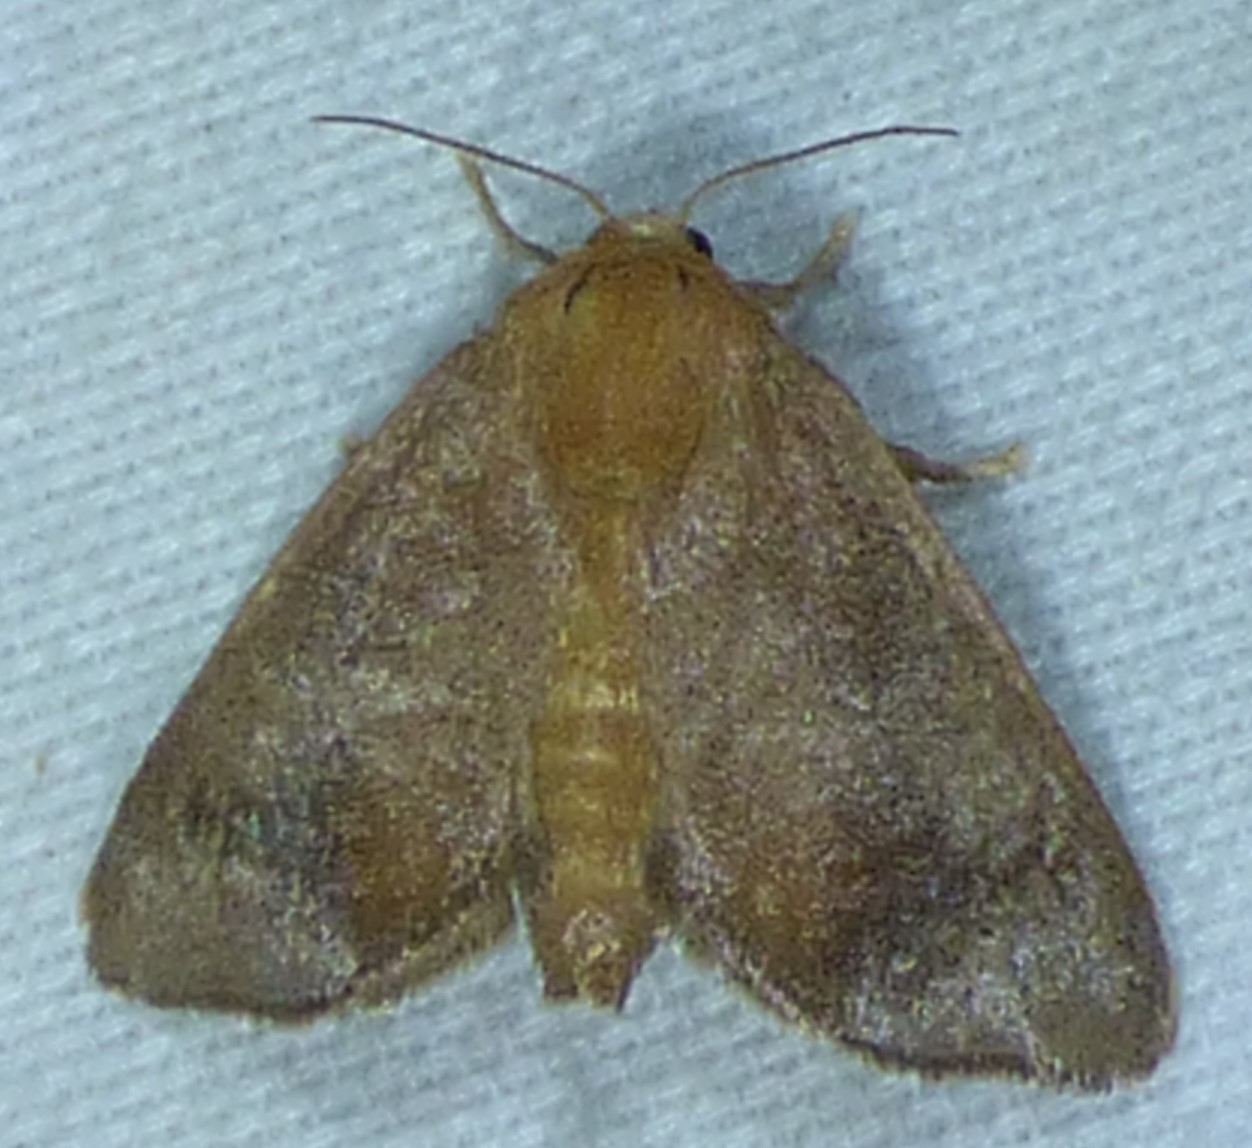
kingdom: Animalia
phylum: Arthropoda
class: Insecta
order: Lepidoptera
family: Limacodidae
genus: Isa
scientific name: Isa textula
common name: Crowned slug moth
